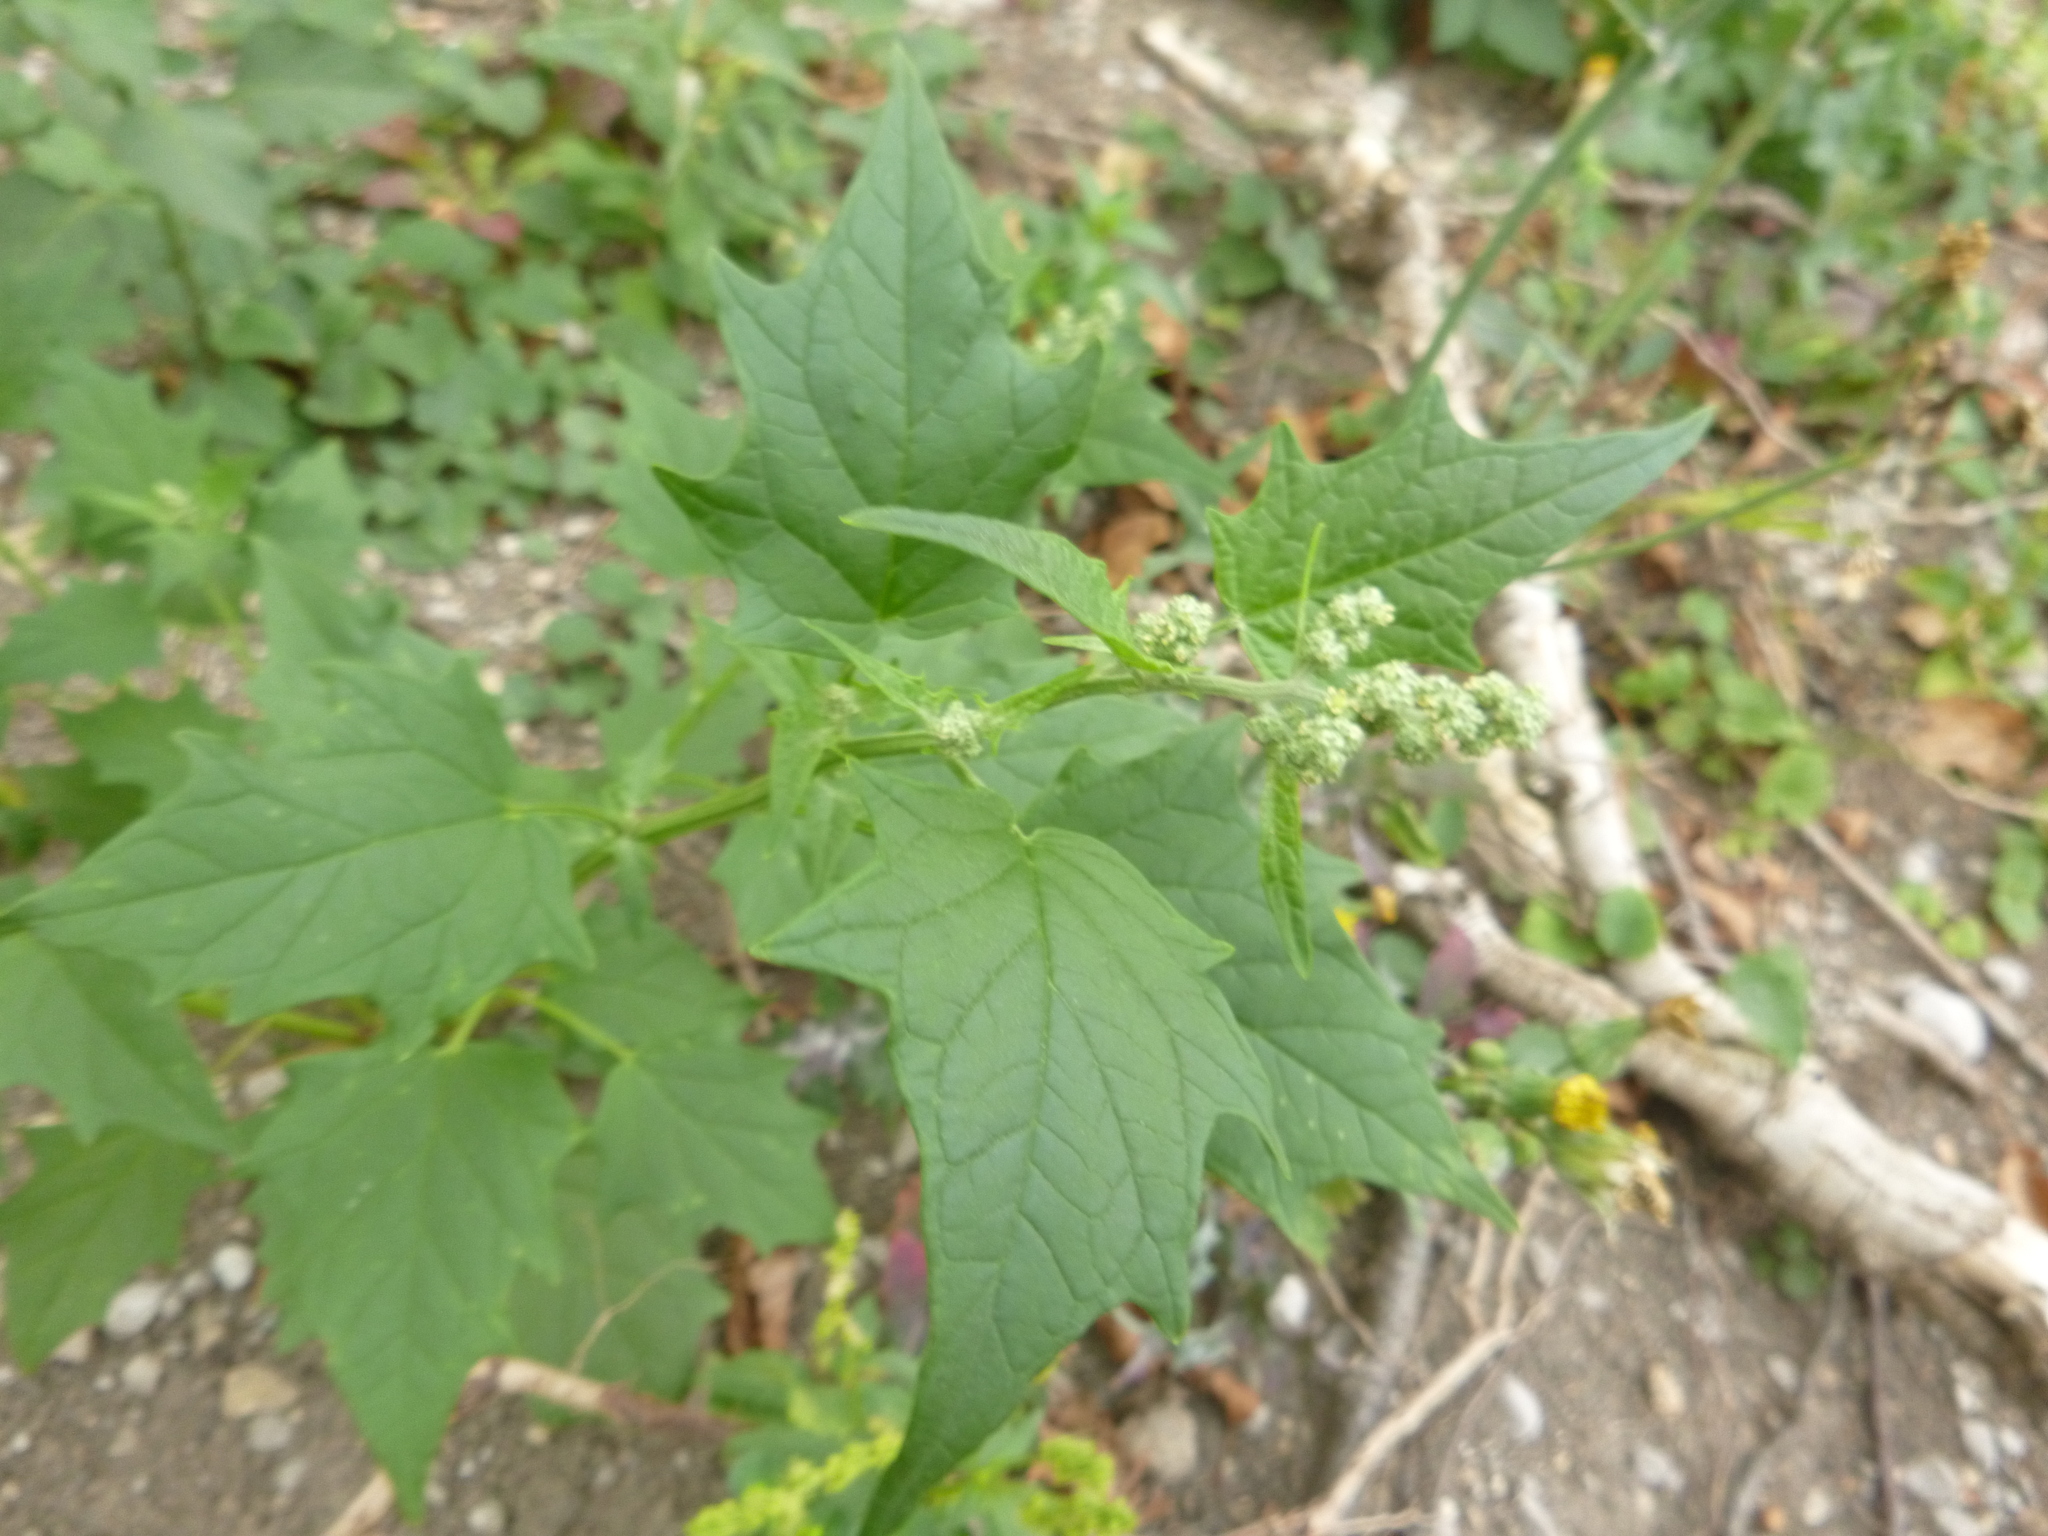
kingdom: Plantae
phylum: Tracheophyta
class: Magnoliopsida
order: Caryophyllales
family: Amaranthaceae
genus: Chenopodiastrum
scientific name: Chenopodiastrum hybridum
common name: Mapleleaf goosefoot
